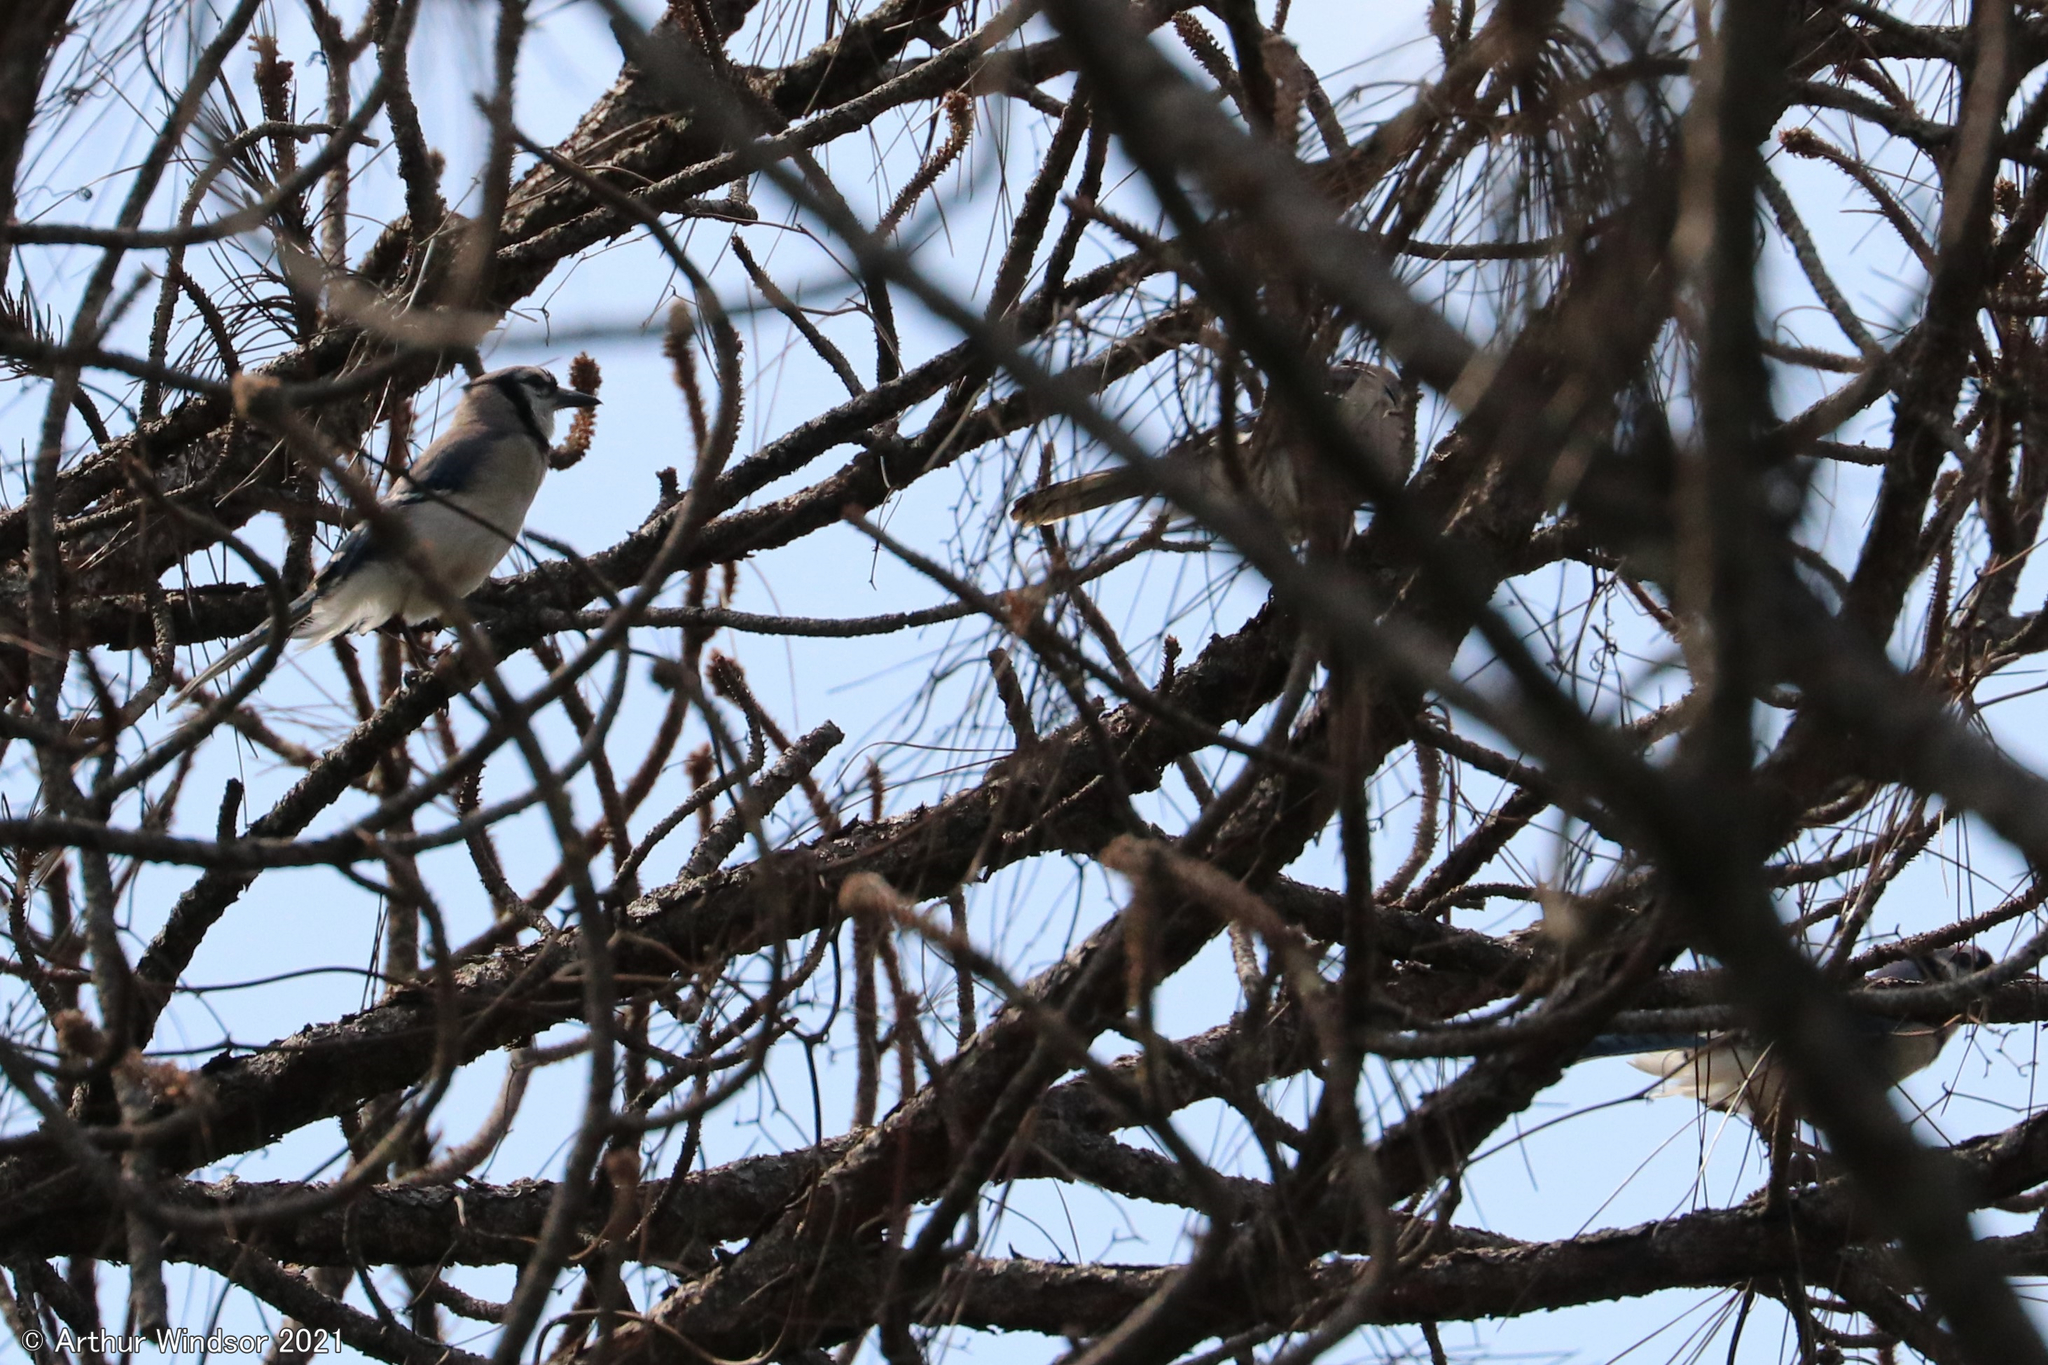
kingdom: Animalia
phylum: Chordata
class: Aves
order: Passeriformes
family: Corvidae
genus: Cyanocitta
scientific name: Cyanocitta cristata
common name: Blue jay
